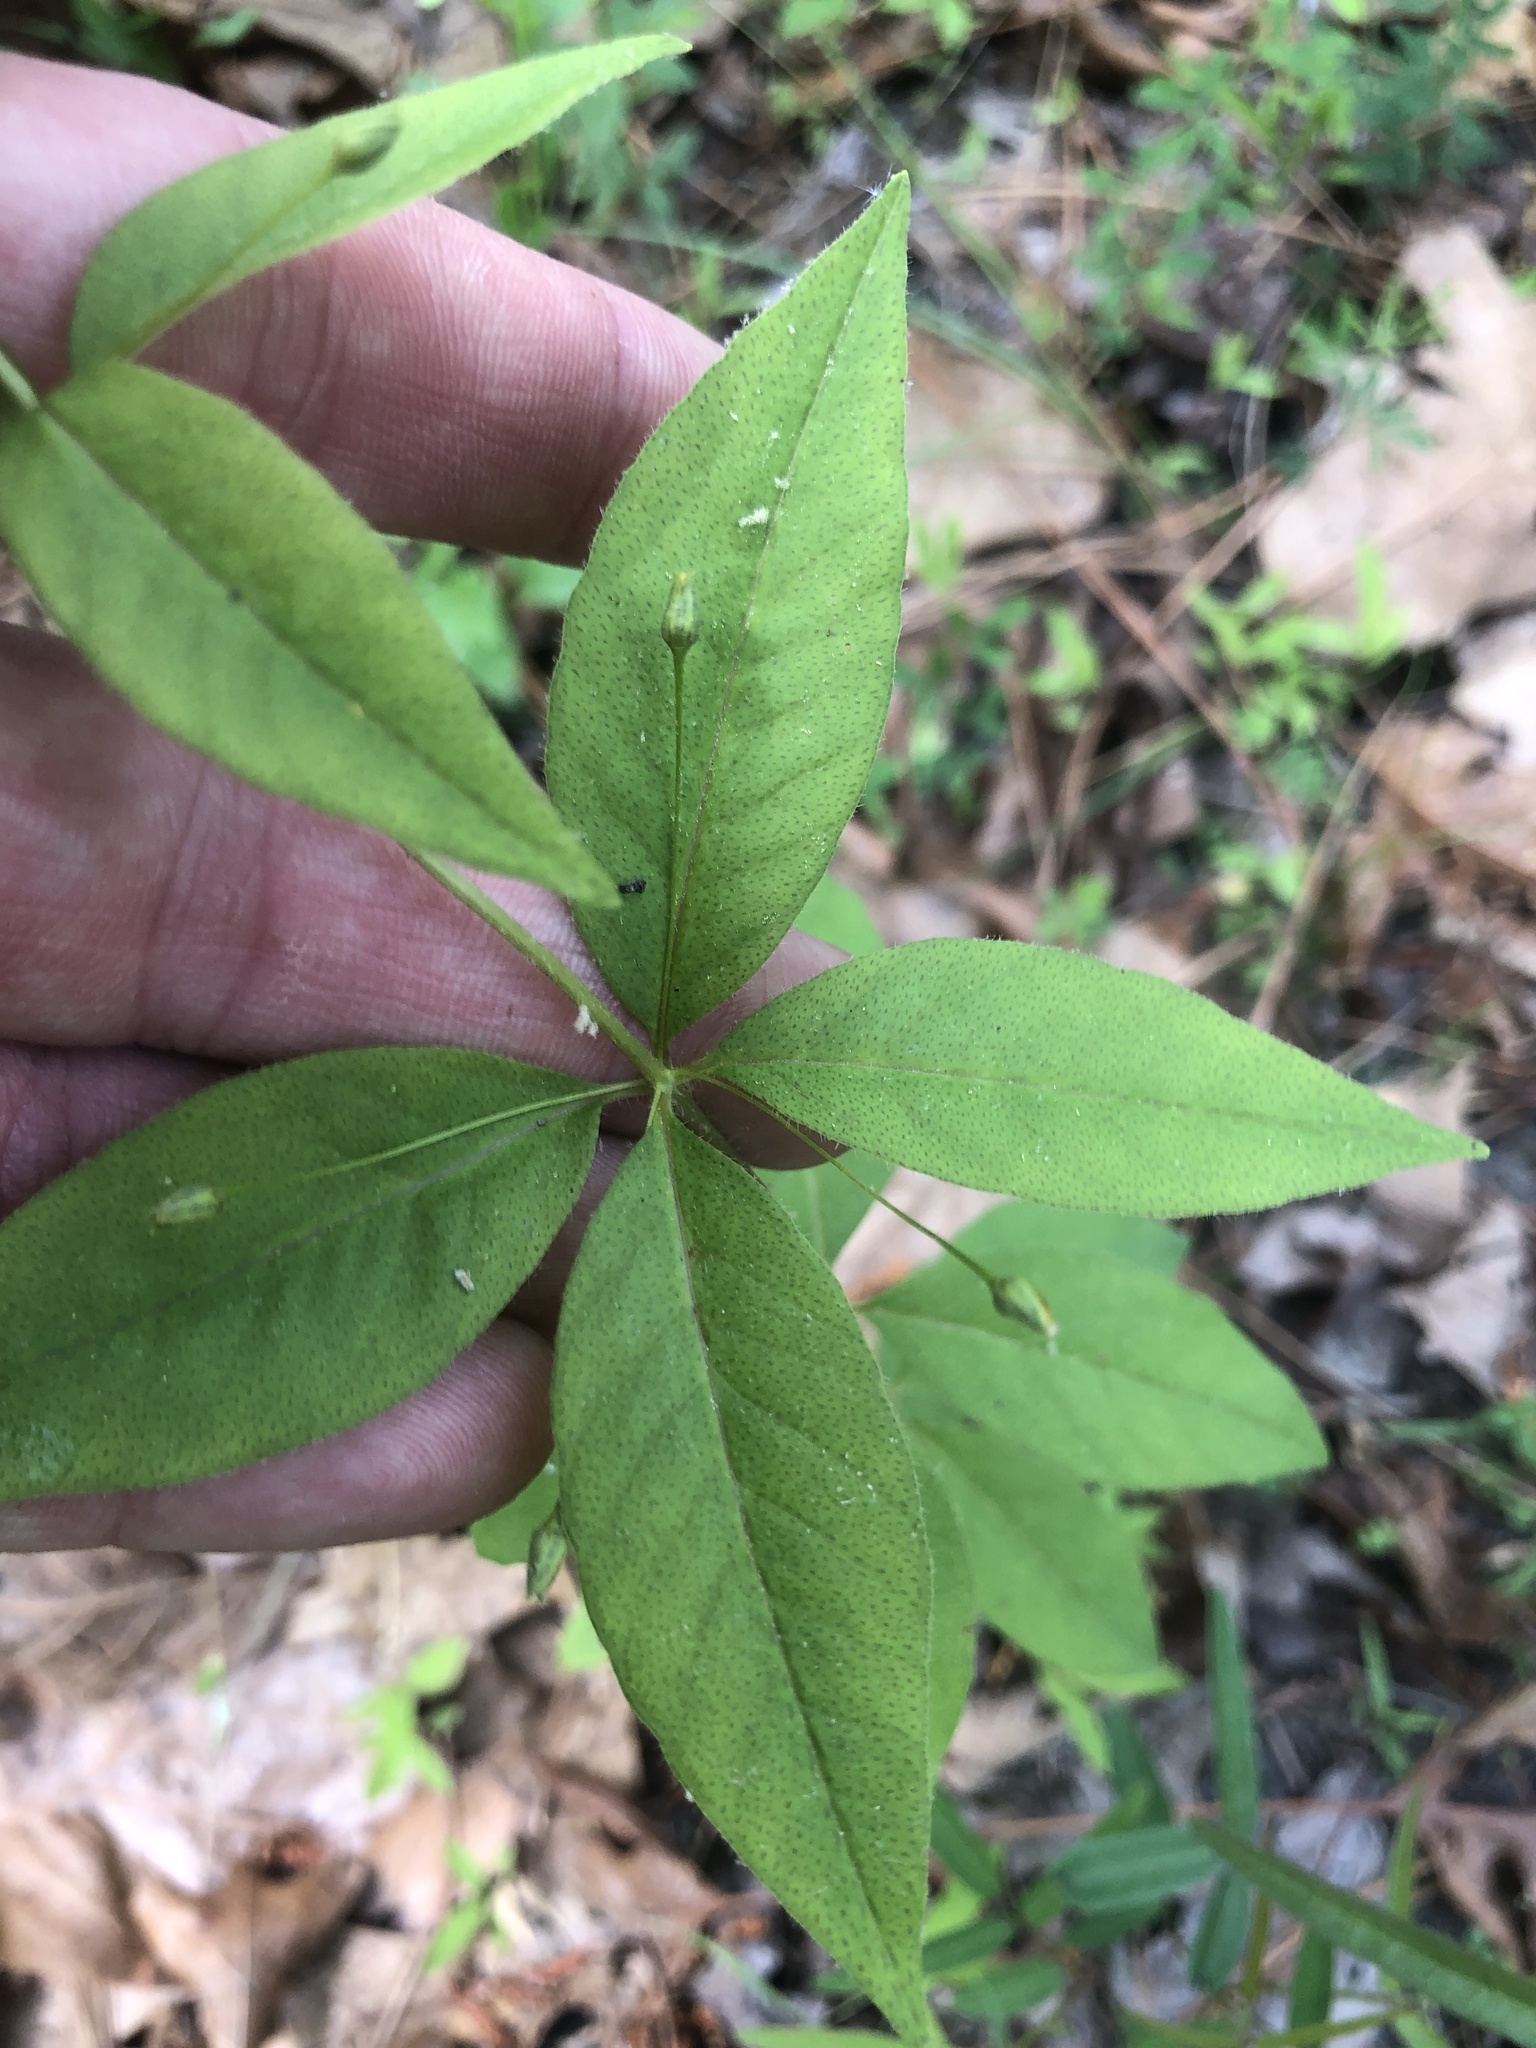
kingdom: Plantae
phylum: Tracheophyta
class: Magnoliopsida
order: Ericales
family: Primulaceae
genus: Lysimachia
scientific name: Lysimachia quadrifolia
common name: Whorled loosestrife
